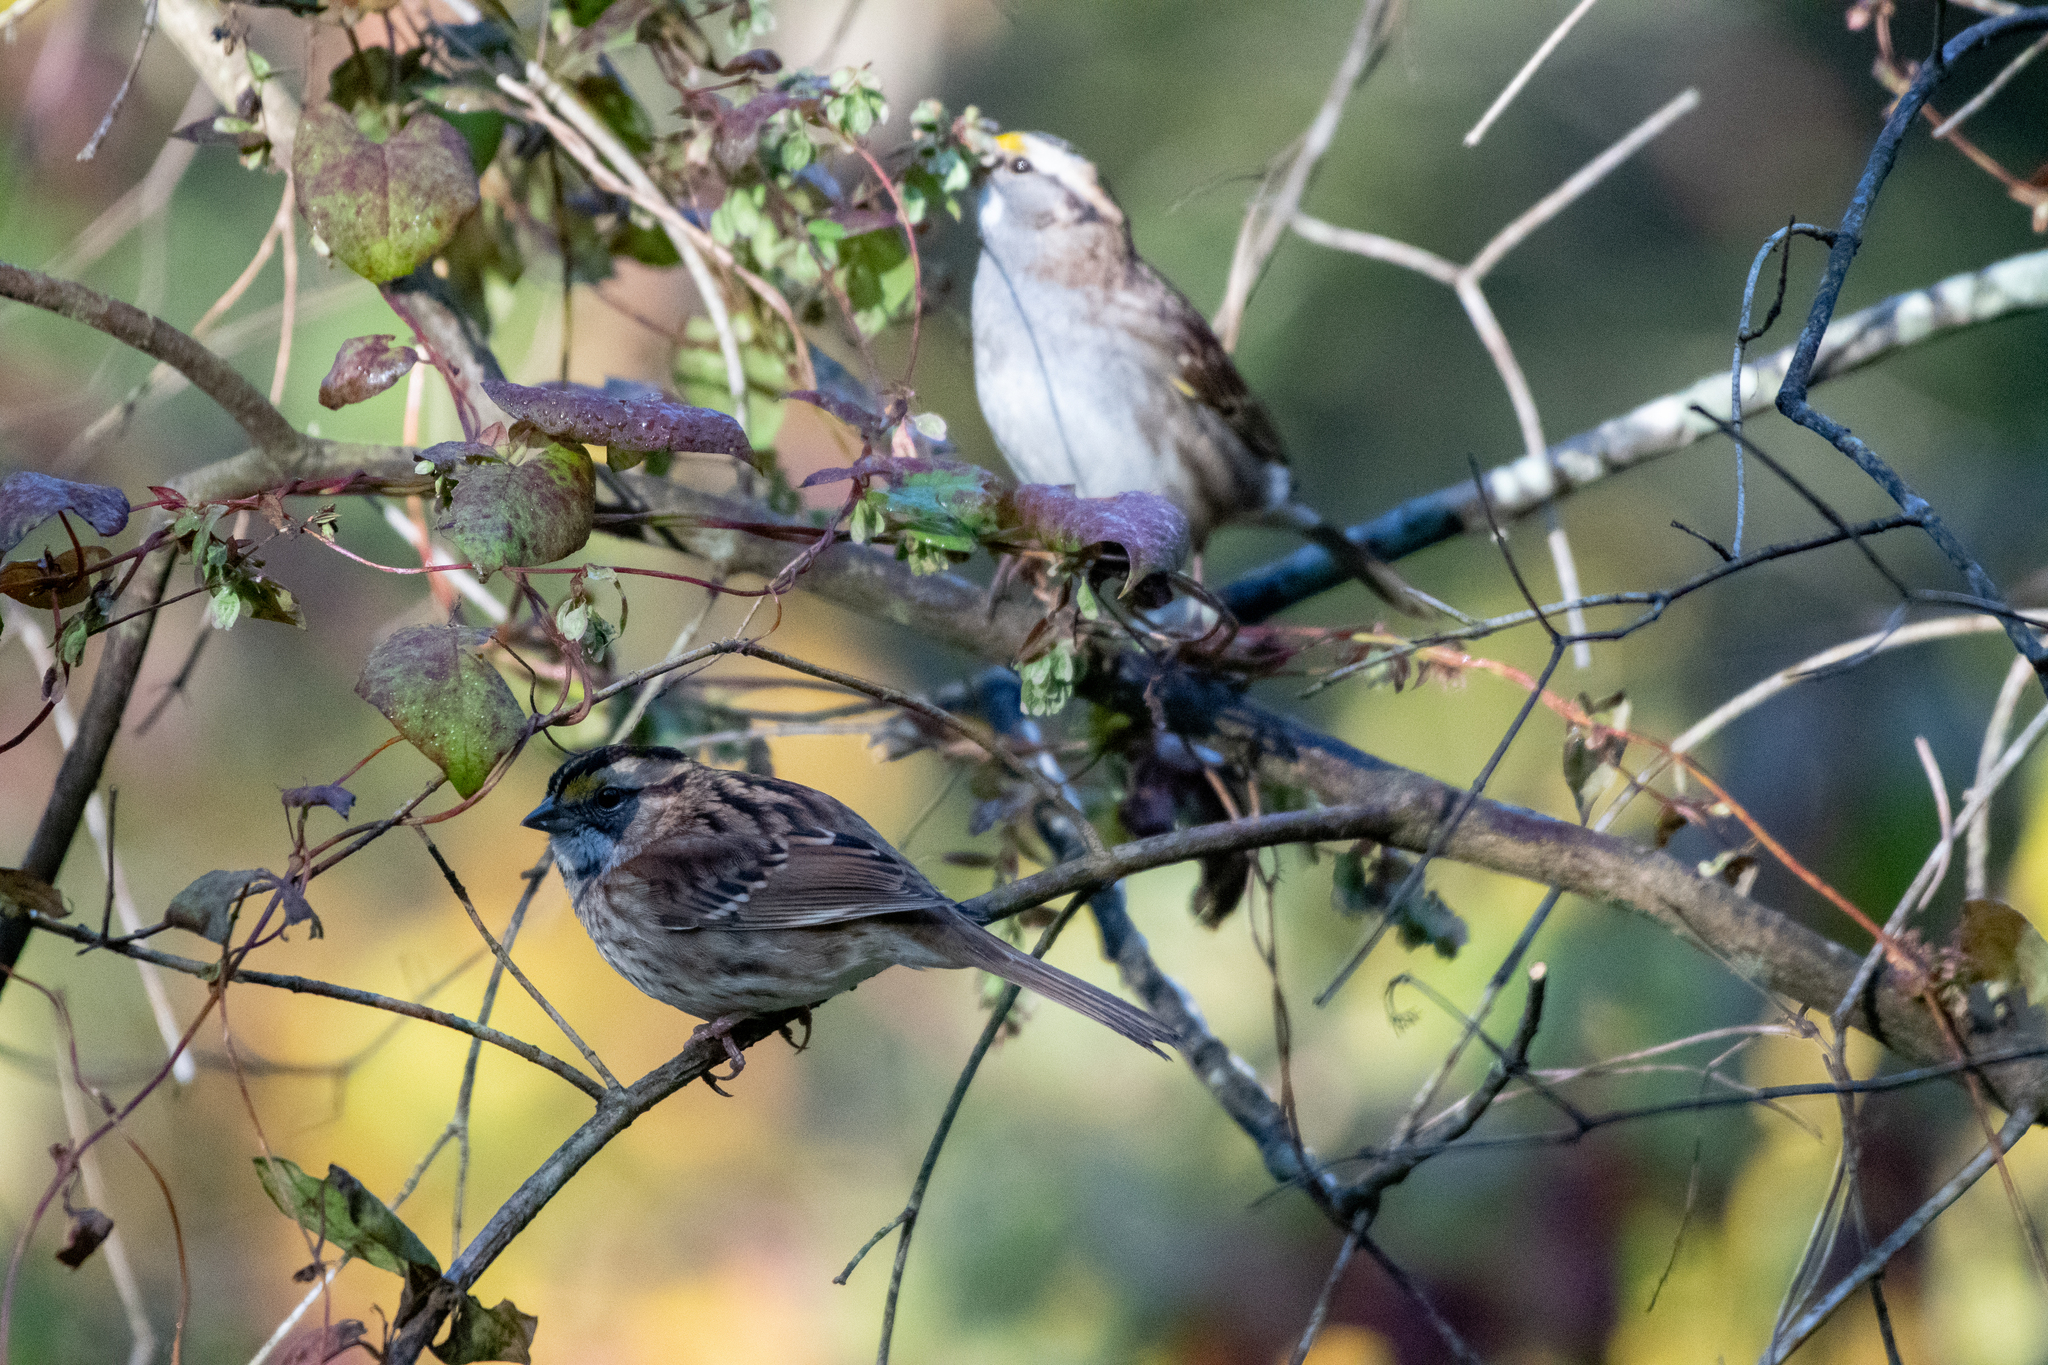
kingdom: Animalia
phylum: Chordata
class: Aves
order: Passeriformes
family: Passerellidae
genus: Zonotrichia
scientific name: Zonotrichia albicollis
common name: White-throated sparrow
